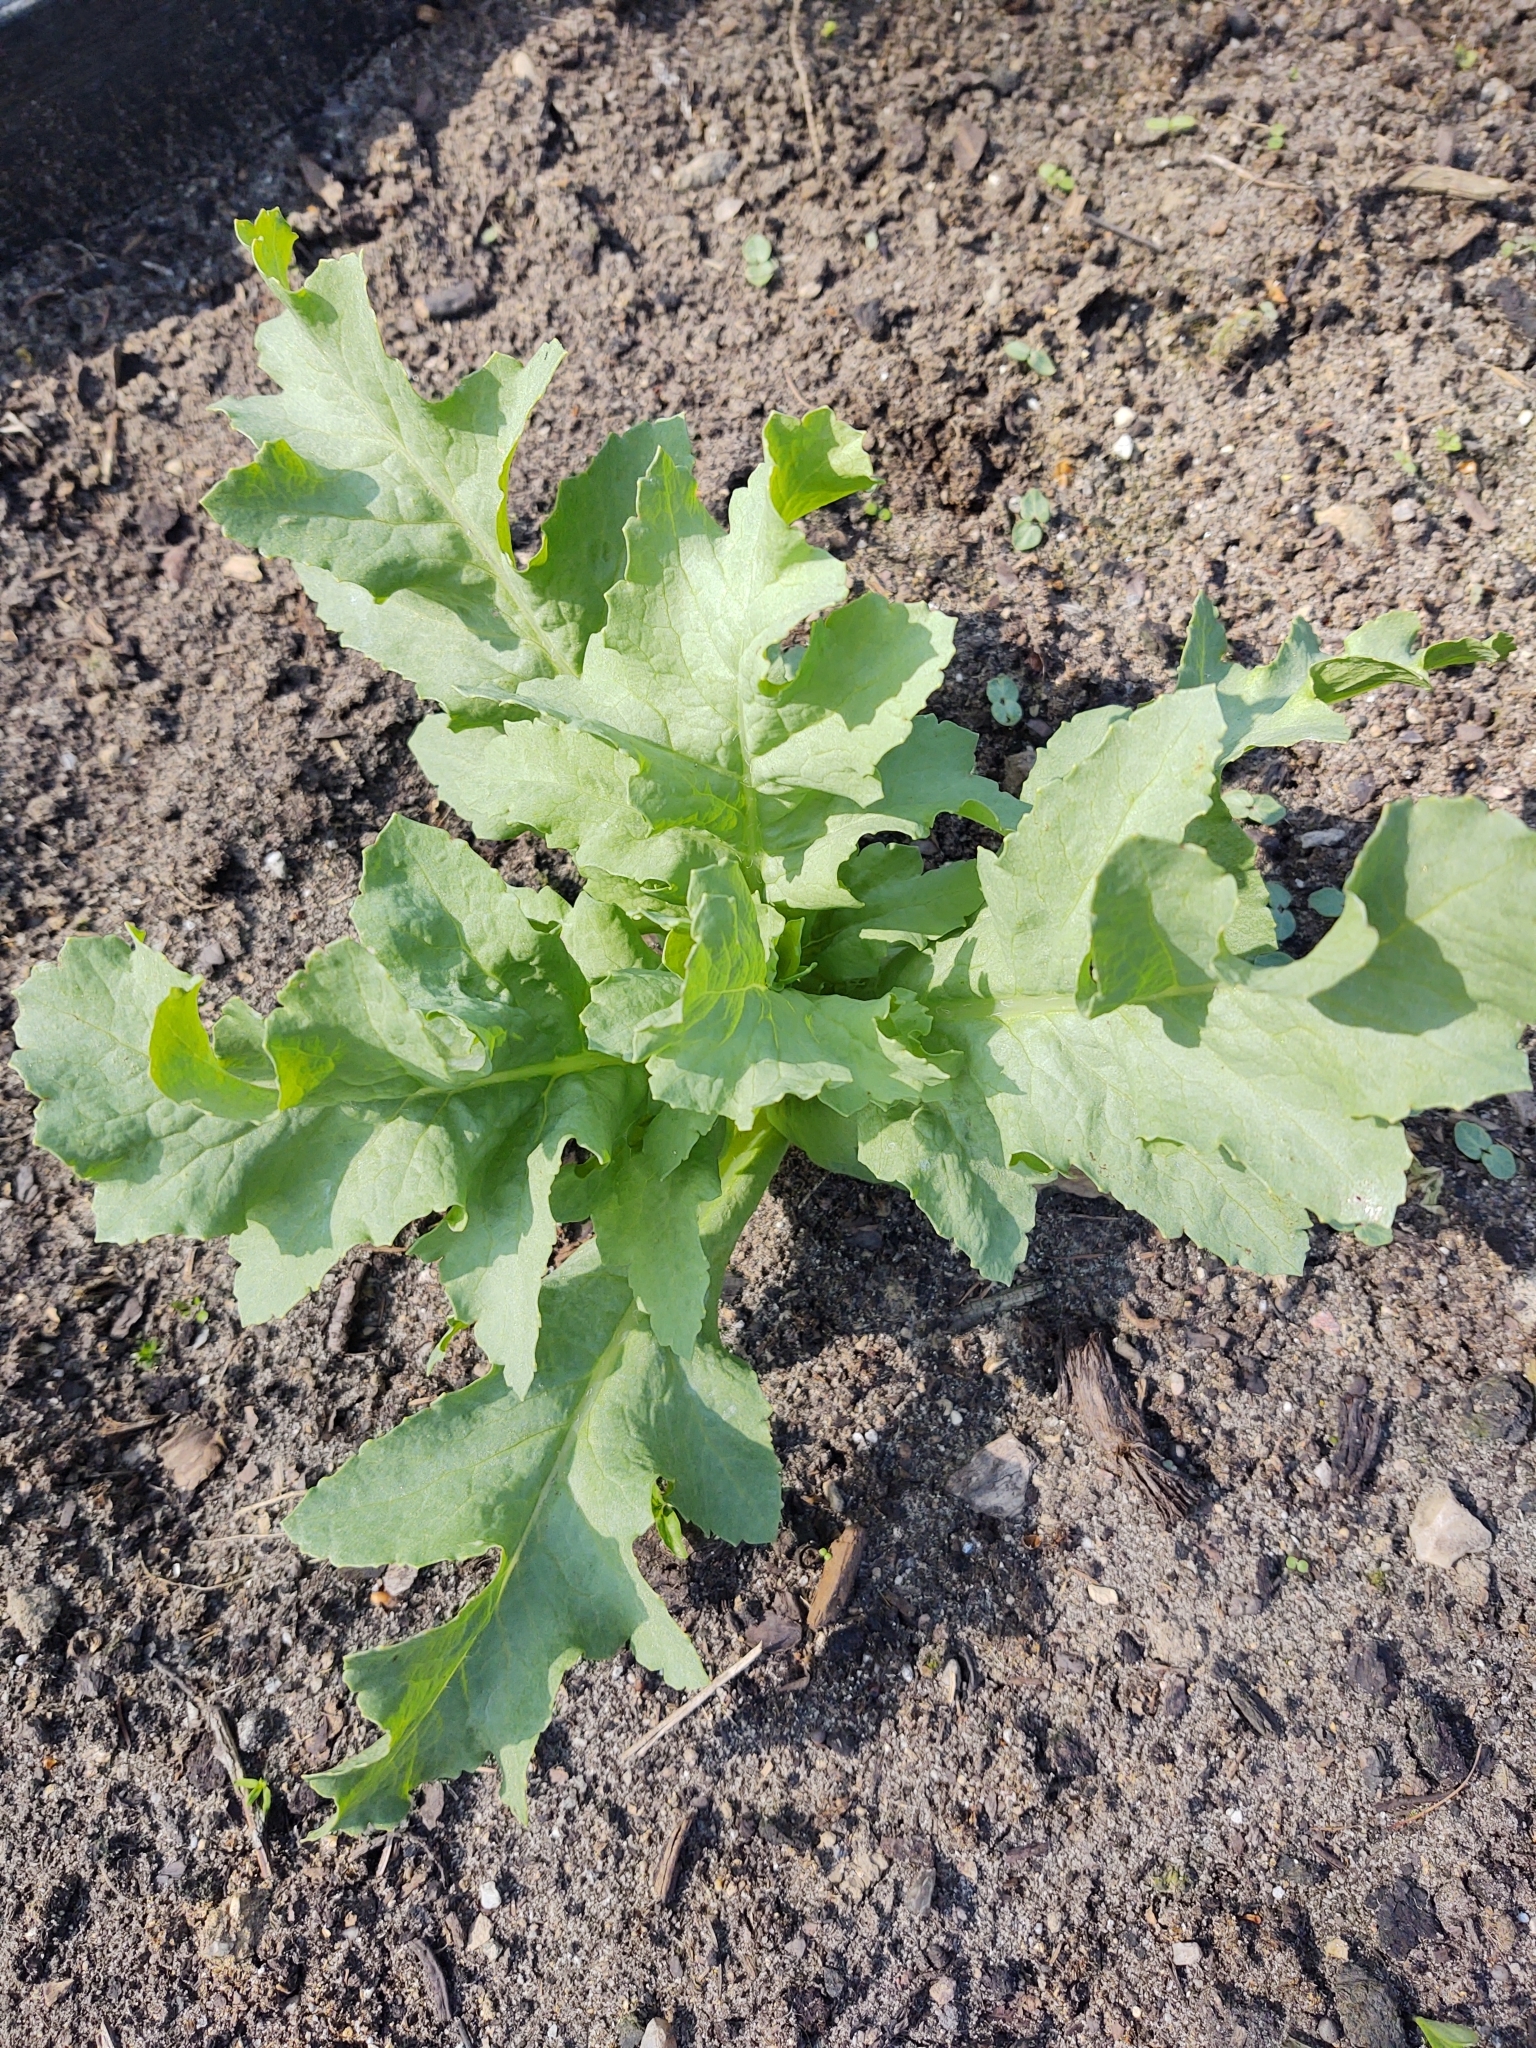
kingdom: Plantae
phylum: Tracheophyta
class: Magnoliopsida
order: Ranunculales
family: Papaveraceae
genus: Papaver
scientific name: Papaver somniferum
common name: Opium poppy
